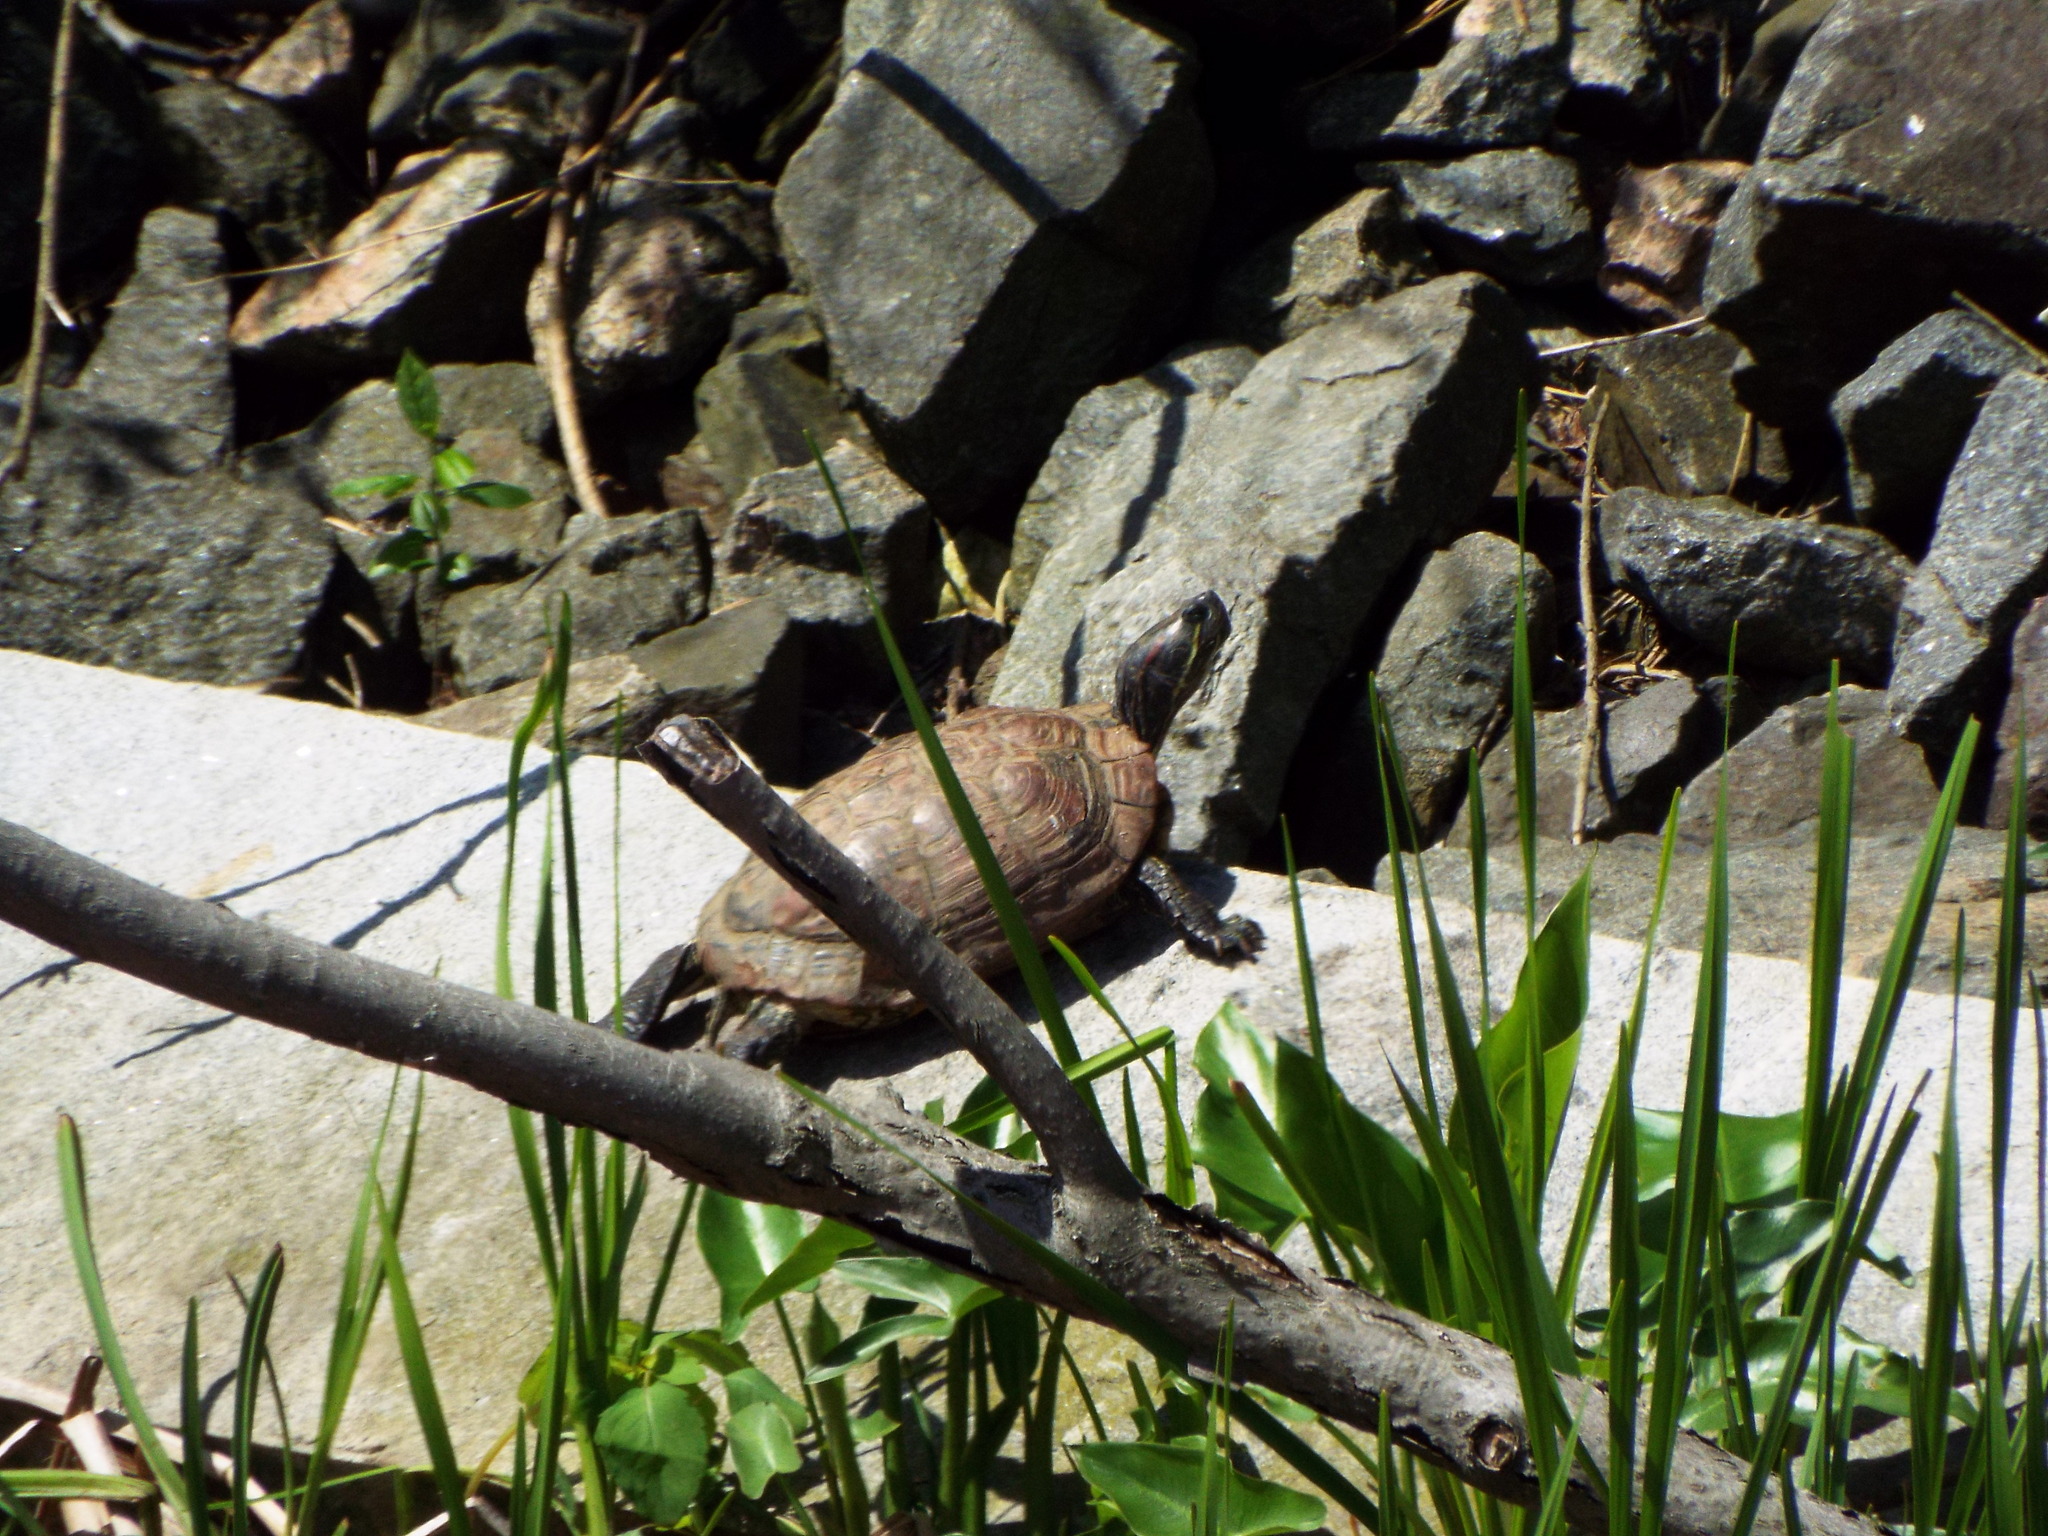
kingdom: Animalia
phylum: Chordata
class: Testudines
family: Emydidae
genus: Trachemys
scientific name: Trachemys scripta
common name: Slider
